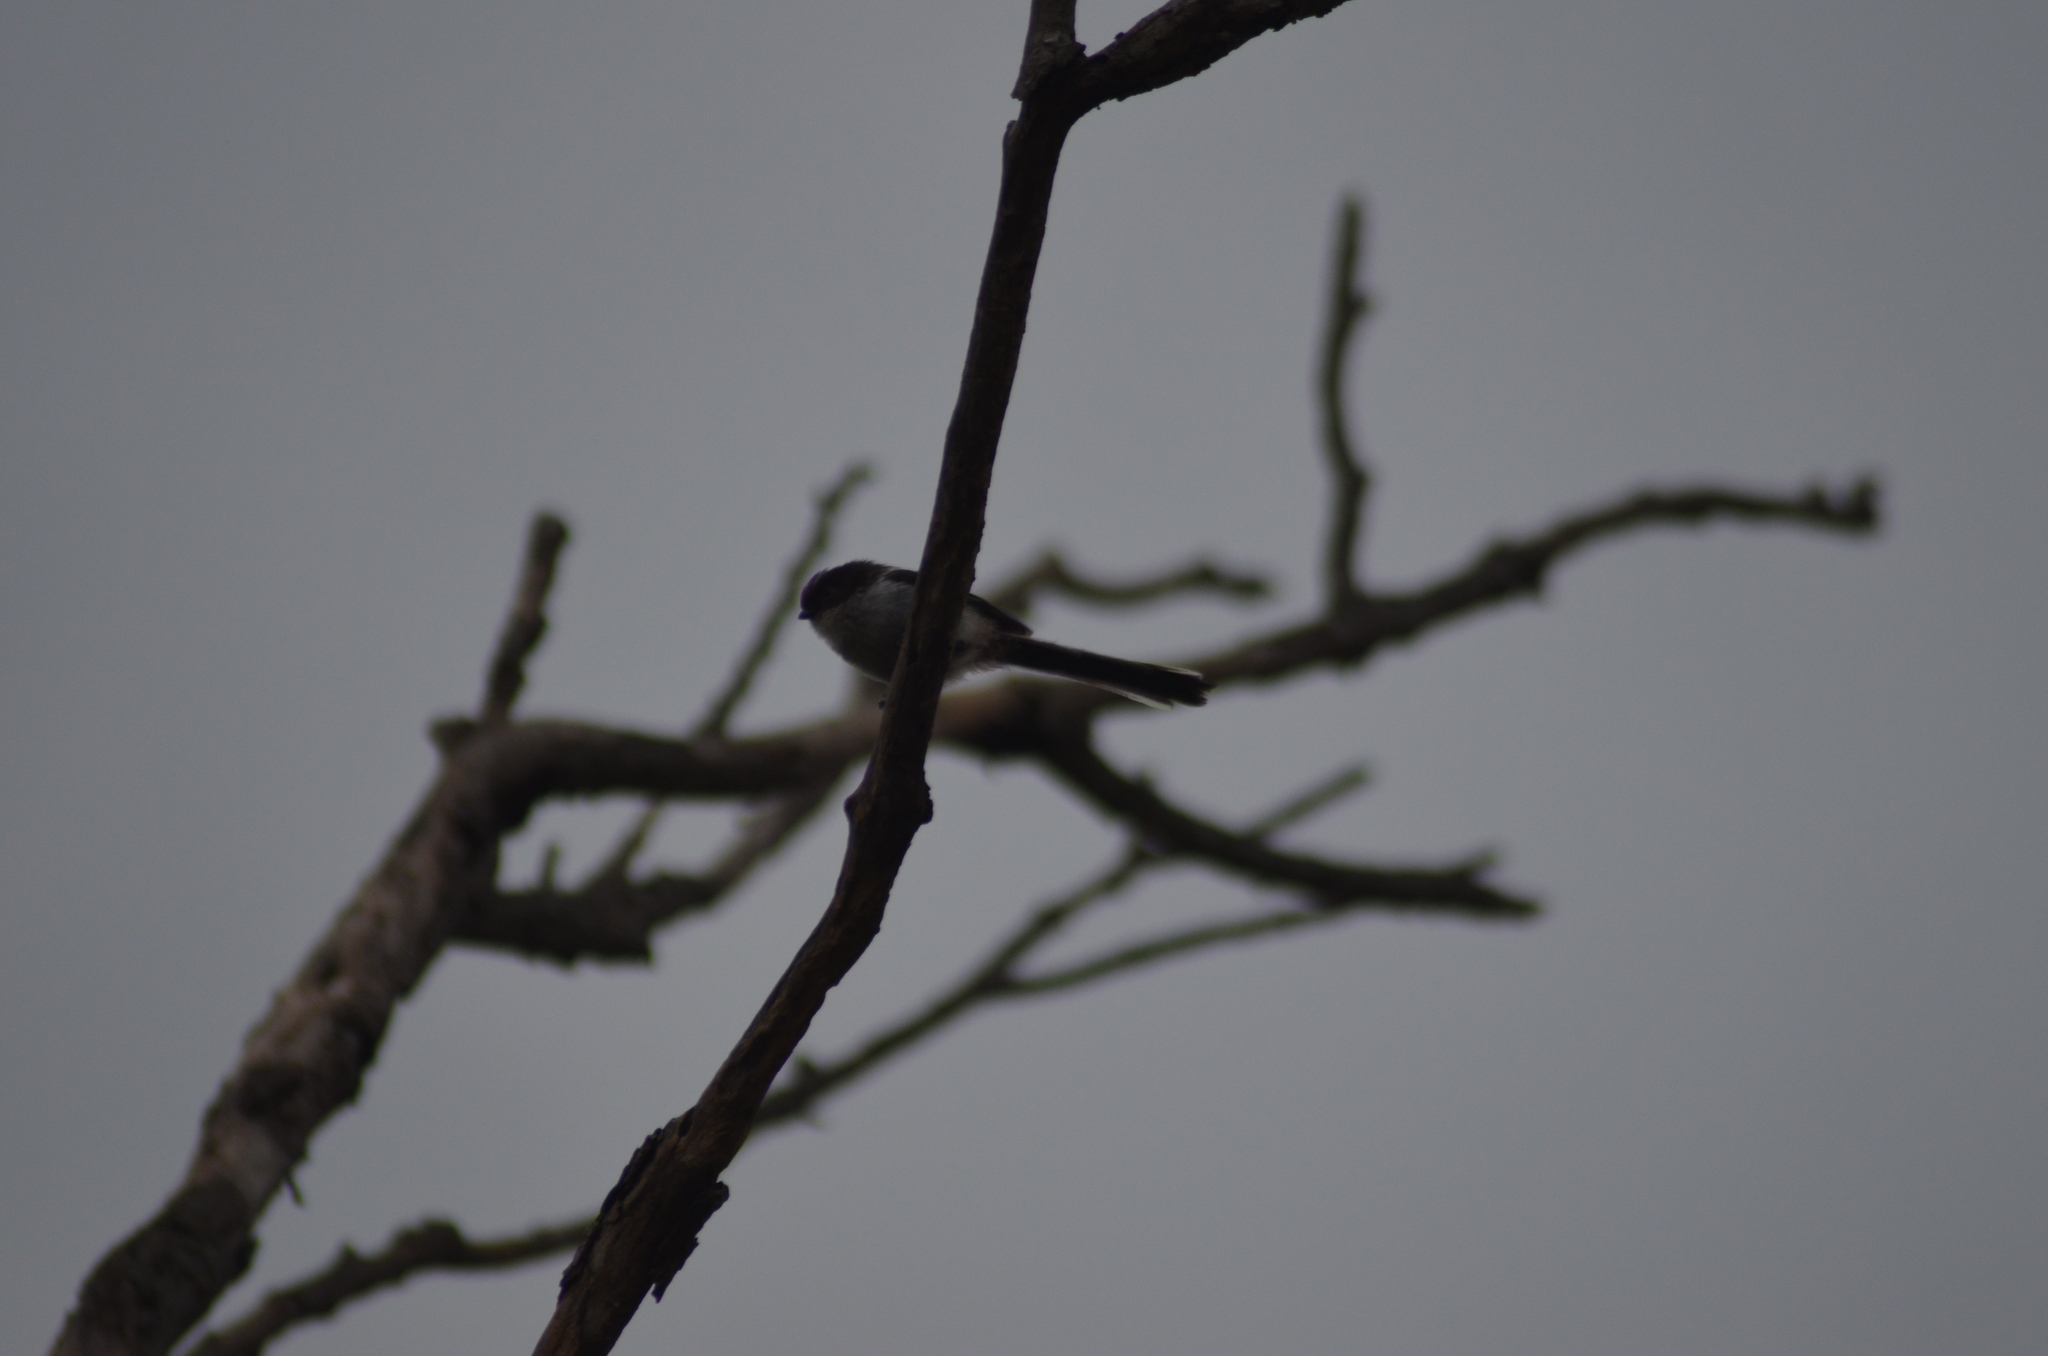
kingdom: Animalia
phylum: Chordata
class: Aves
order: Passeriformes
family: Aegithalidae
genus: Aegithalos
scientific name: Aegithalos caudatus
